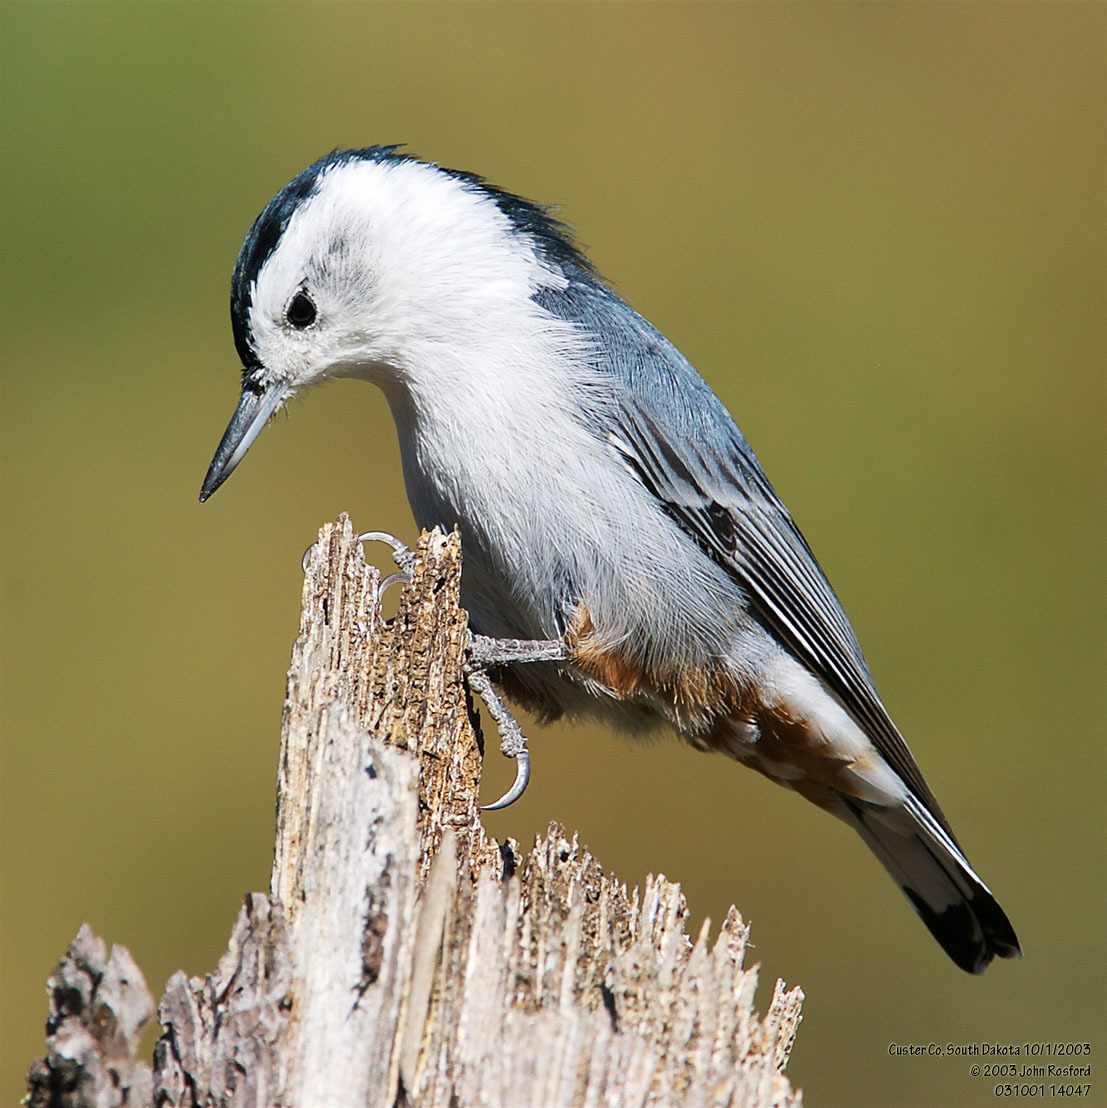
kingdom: Animalia
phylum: Chordata
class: Aves
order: Passeriformes
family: Sittidae
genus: Sitta
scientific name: Sitta carolinensis
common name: White-breasted nuthatch
